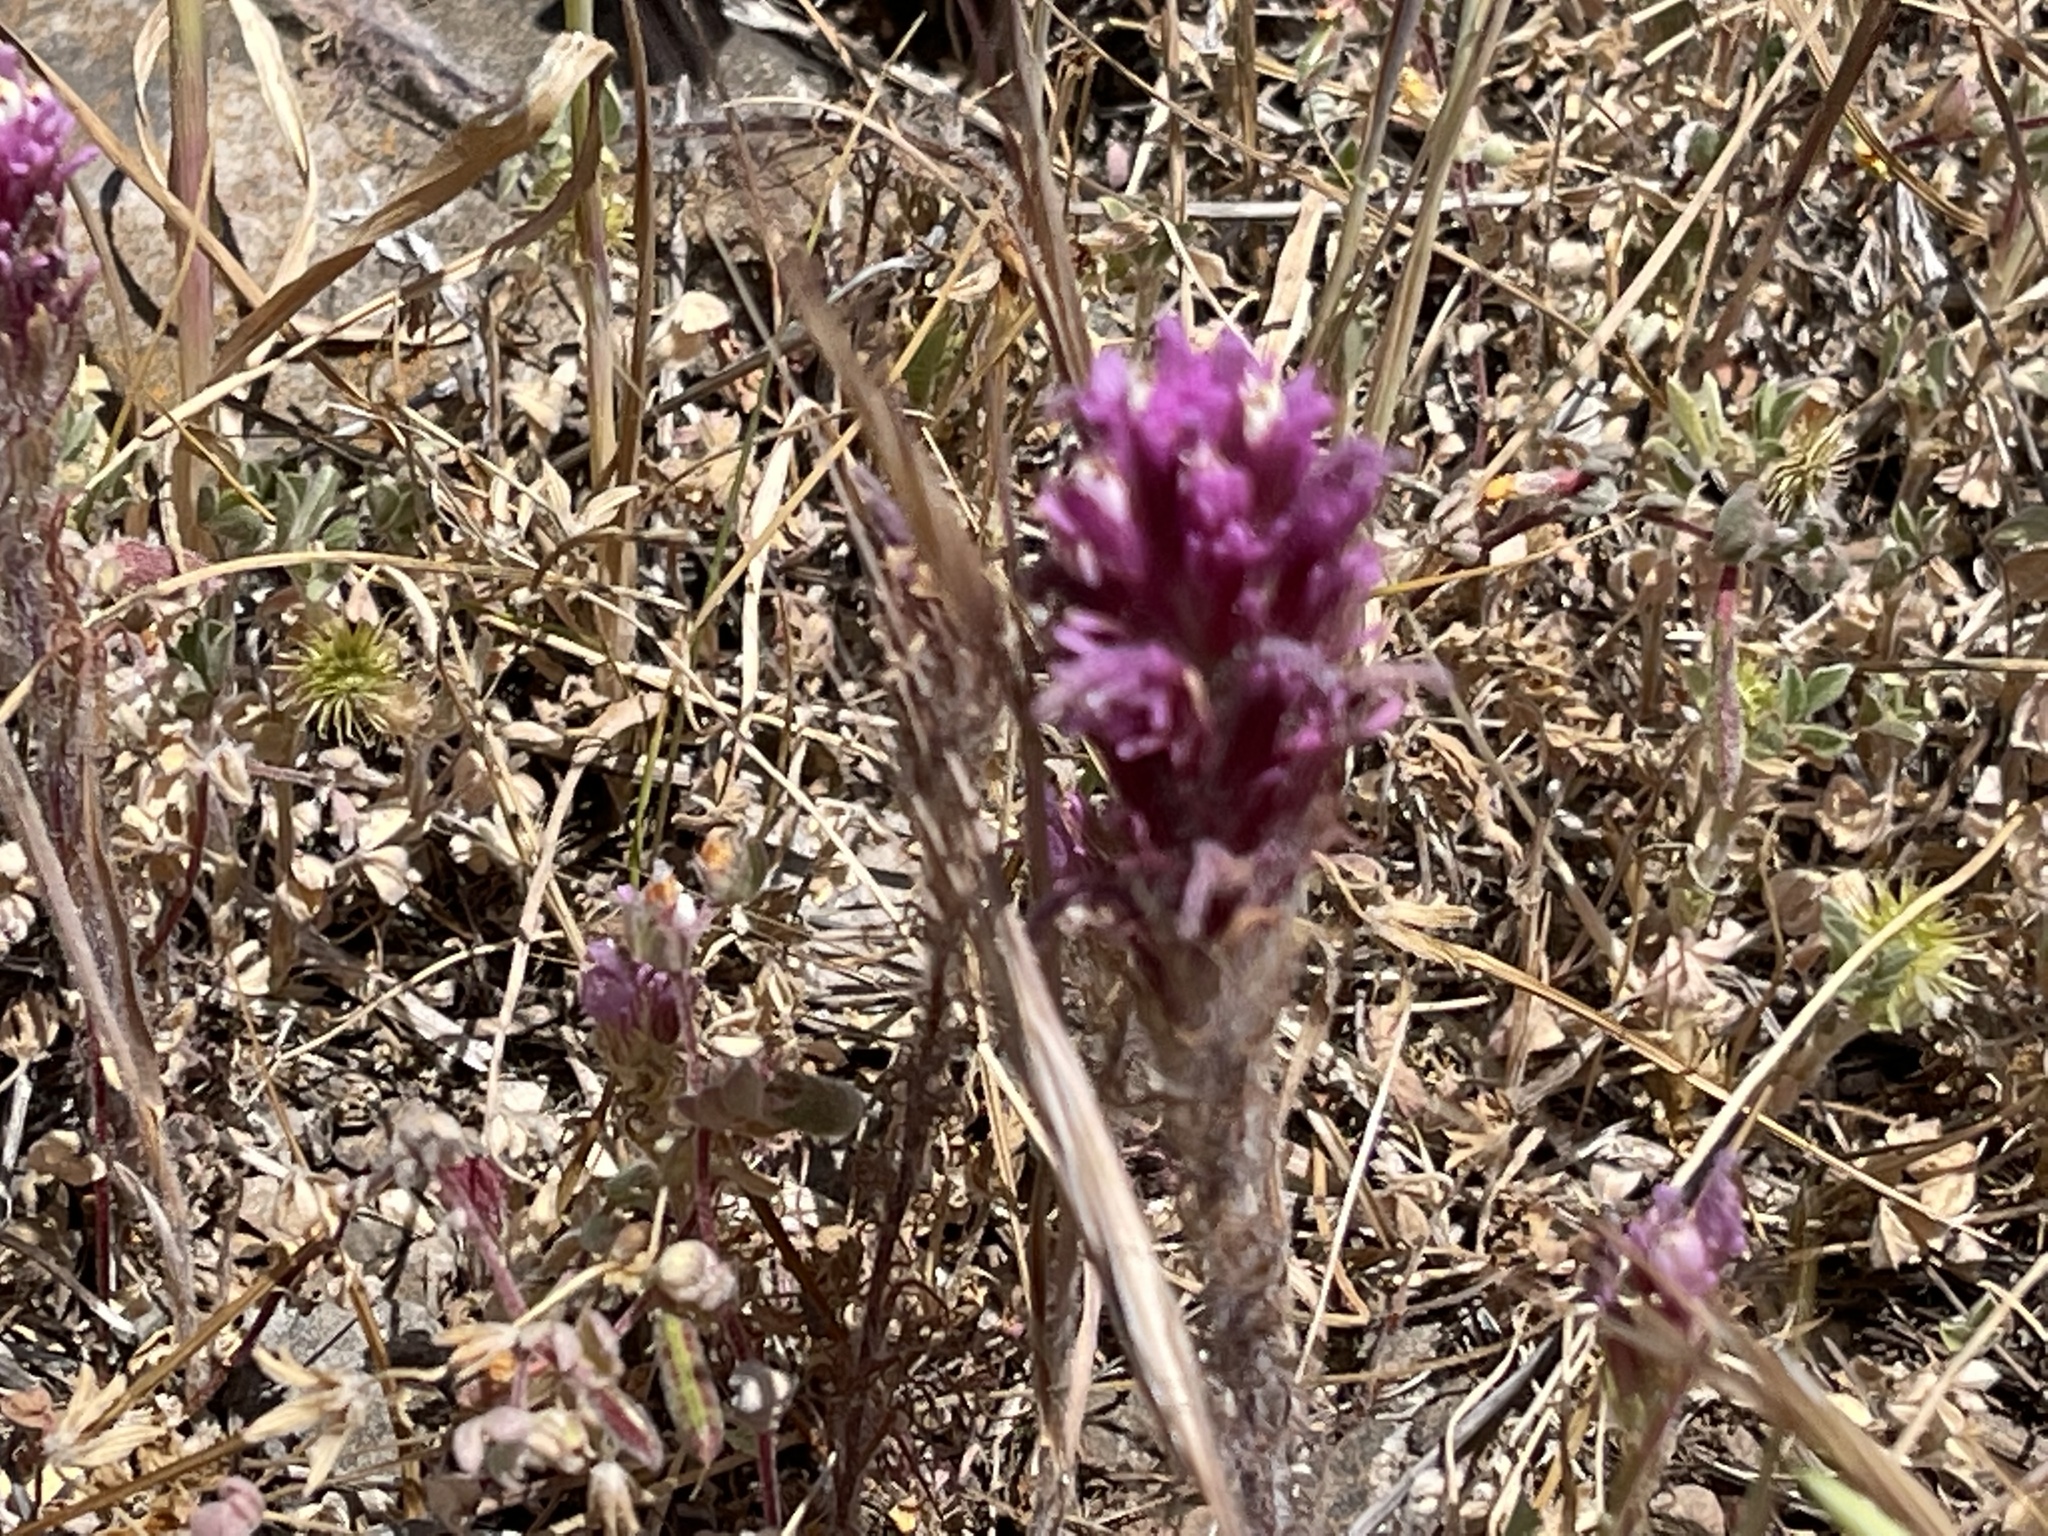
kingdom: Plantae
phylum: Tracheophyta
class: Magnoliopsida
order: Lamiales
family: Orobanchaceae
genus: Castilleja
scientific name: Castilleja exserta
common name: Purple owl-clover
